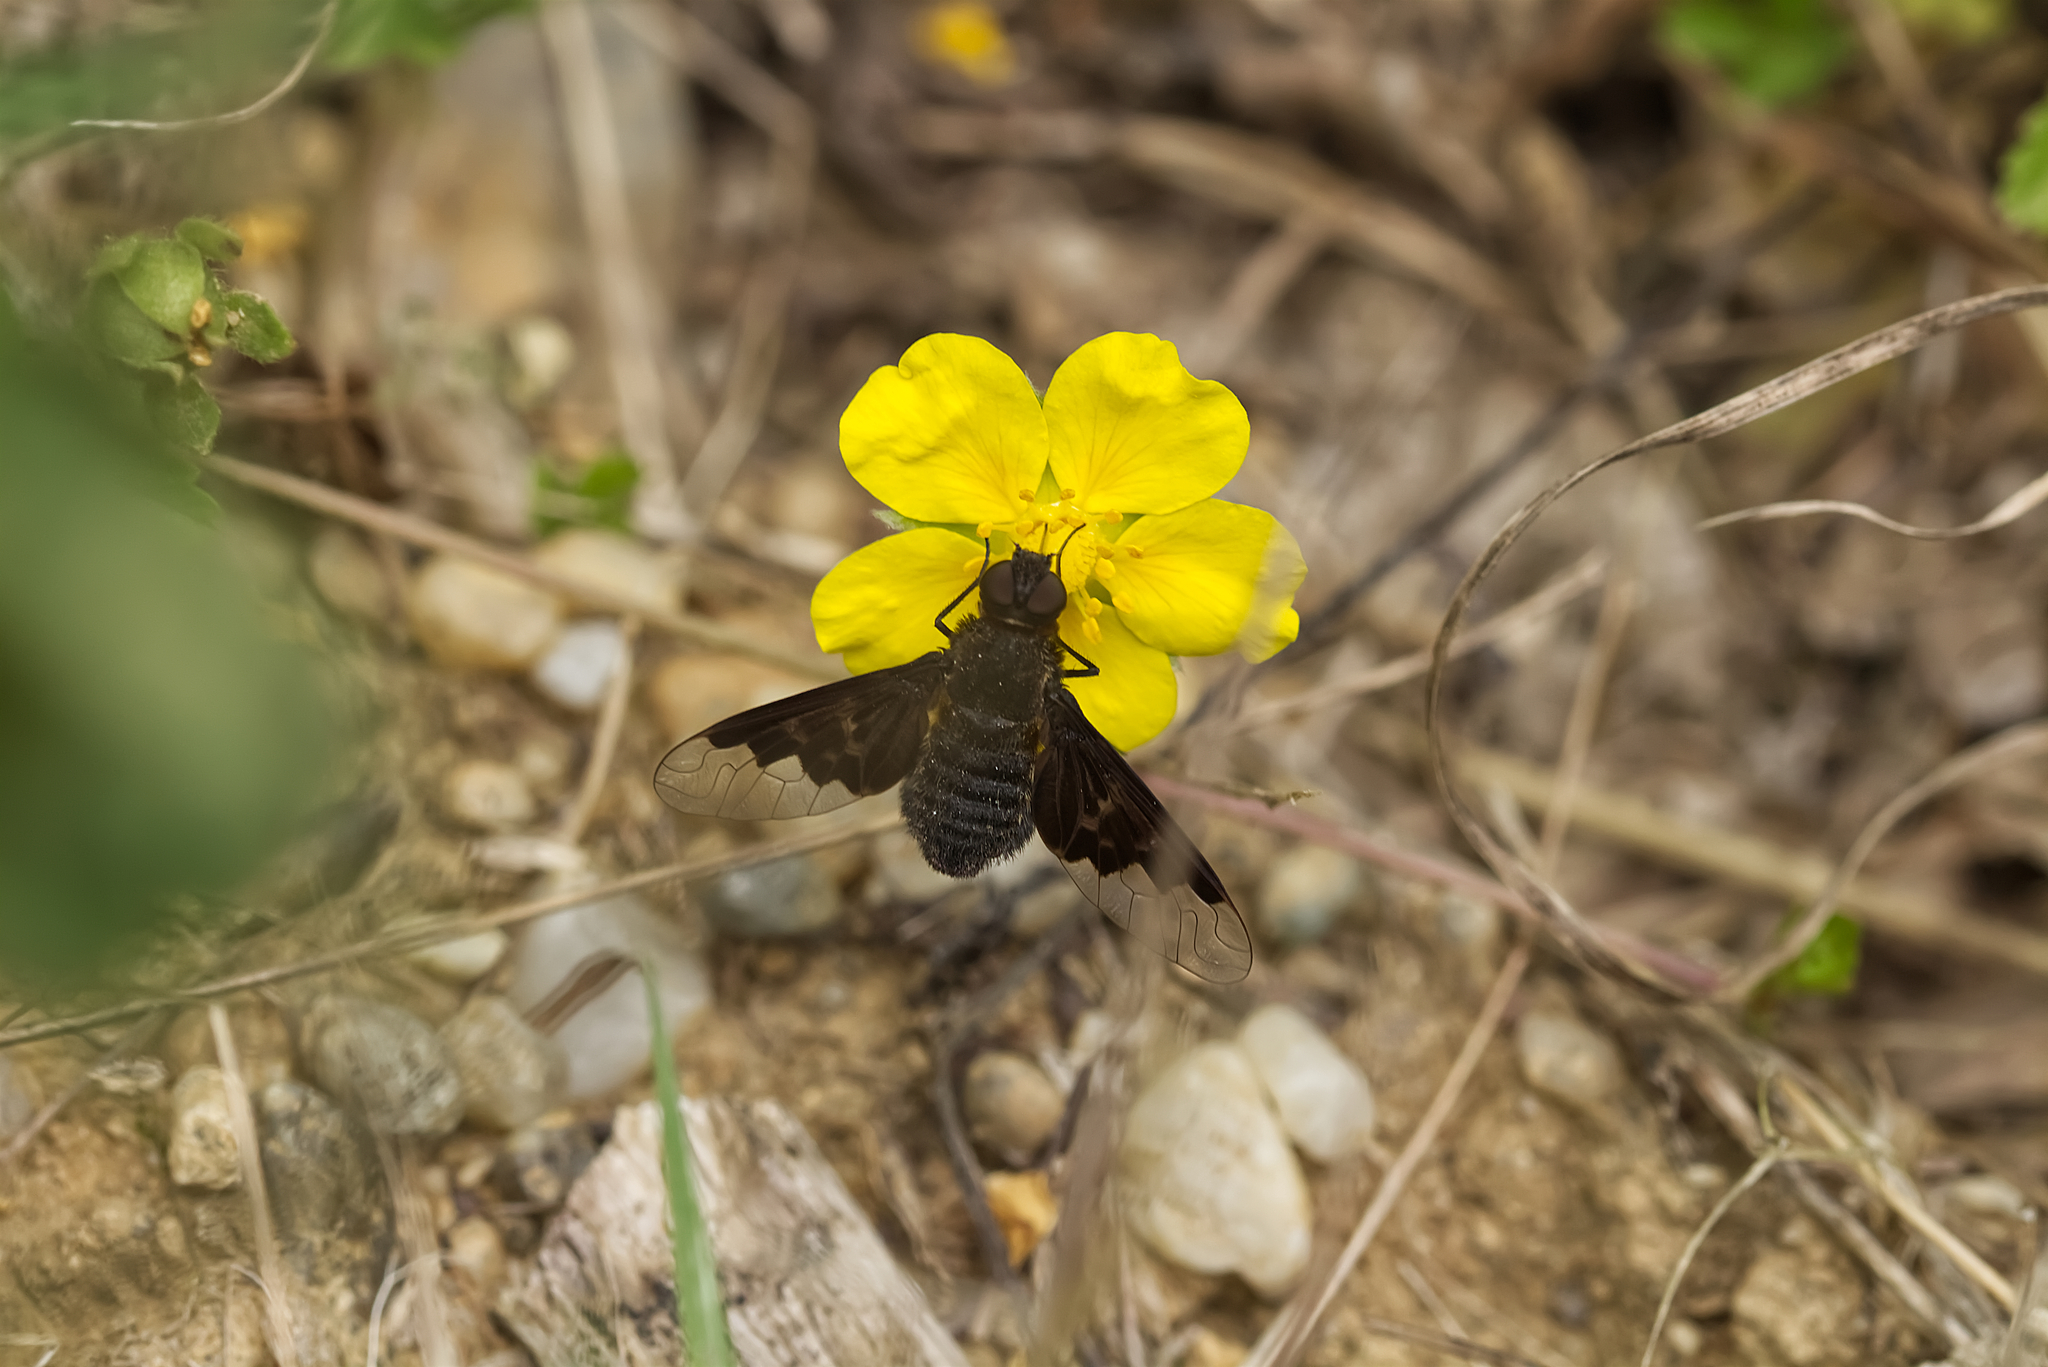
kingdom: Animalia
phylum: Arthropoda
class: Insecta
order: Diptera
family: Bombyliidae
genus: Hemipenthes
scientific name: Hemipenthes morio
